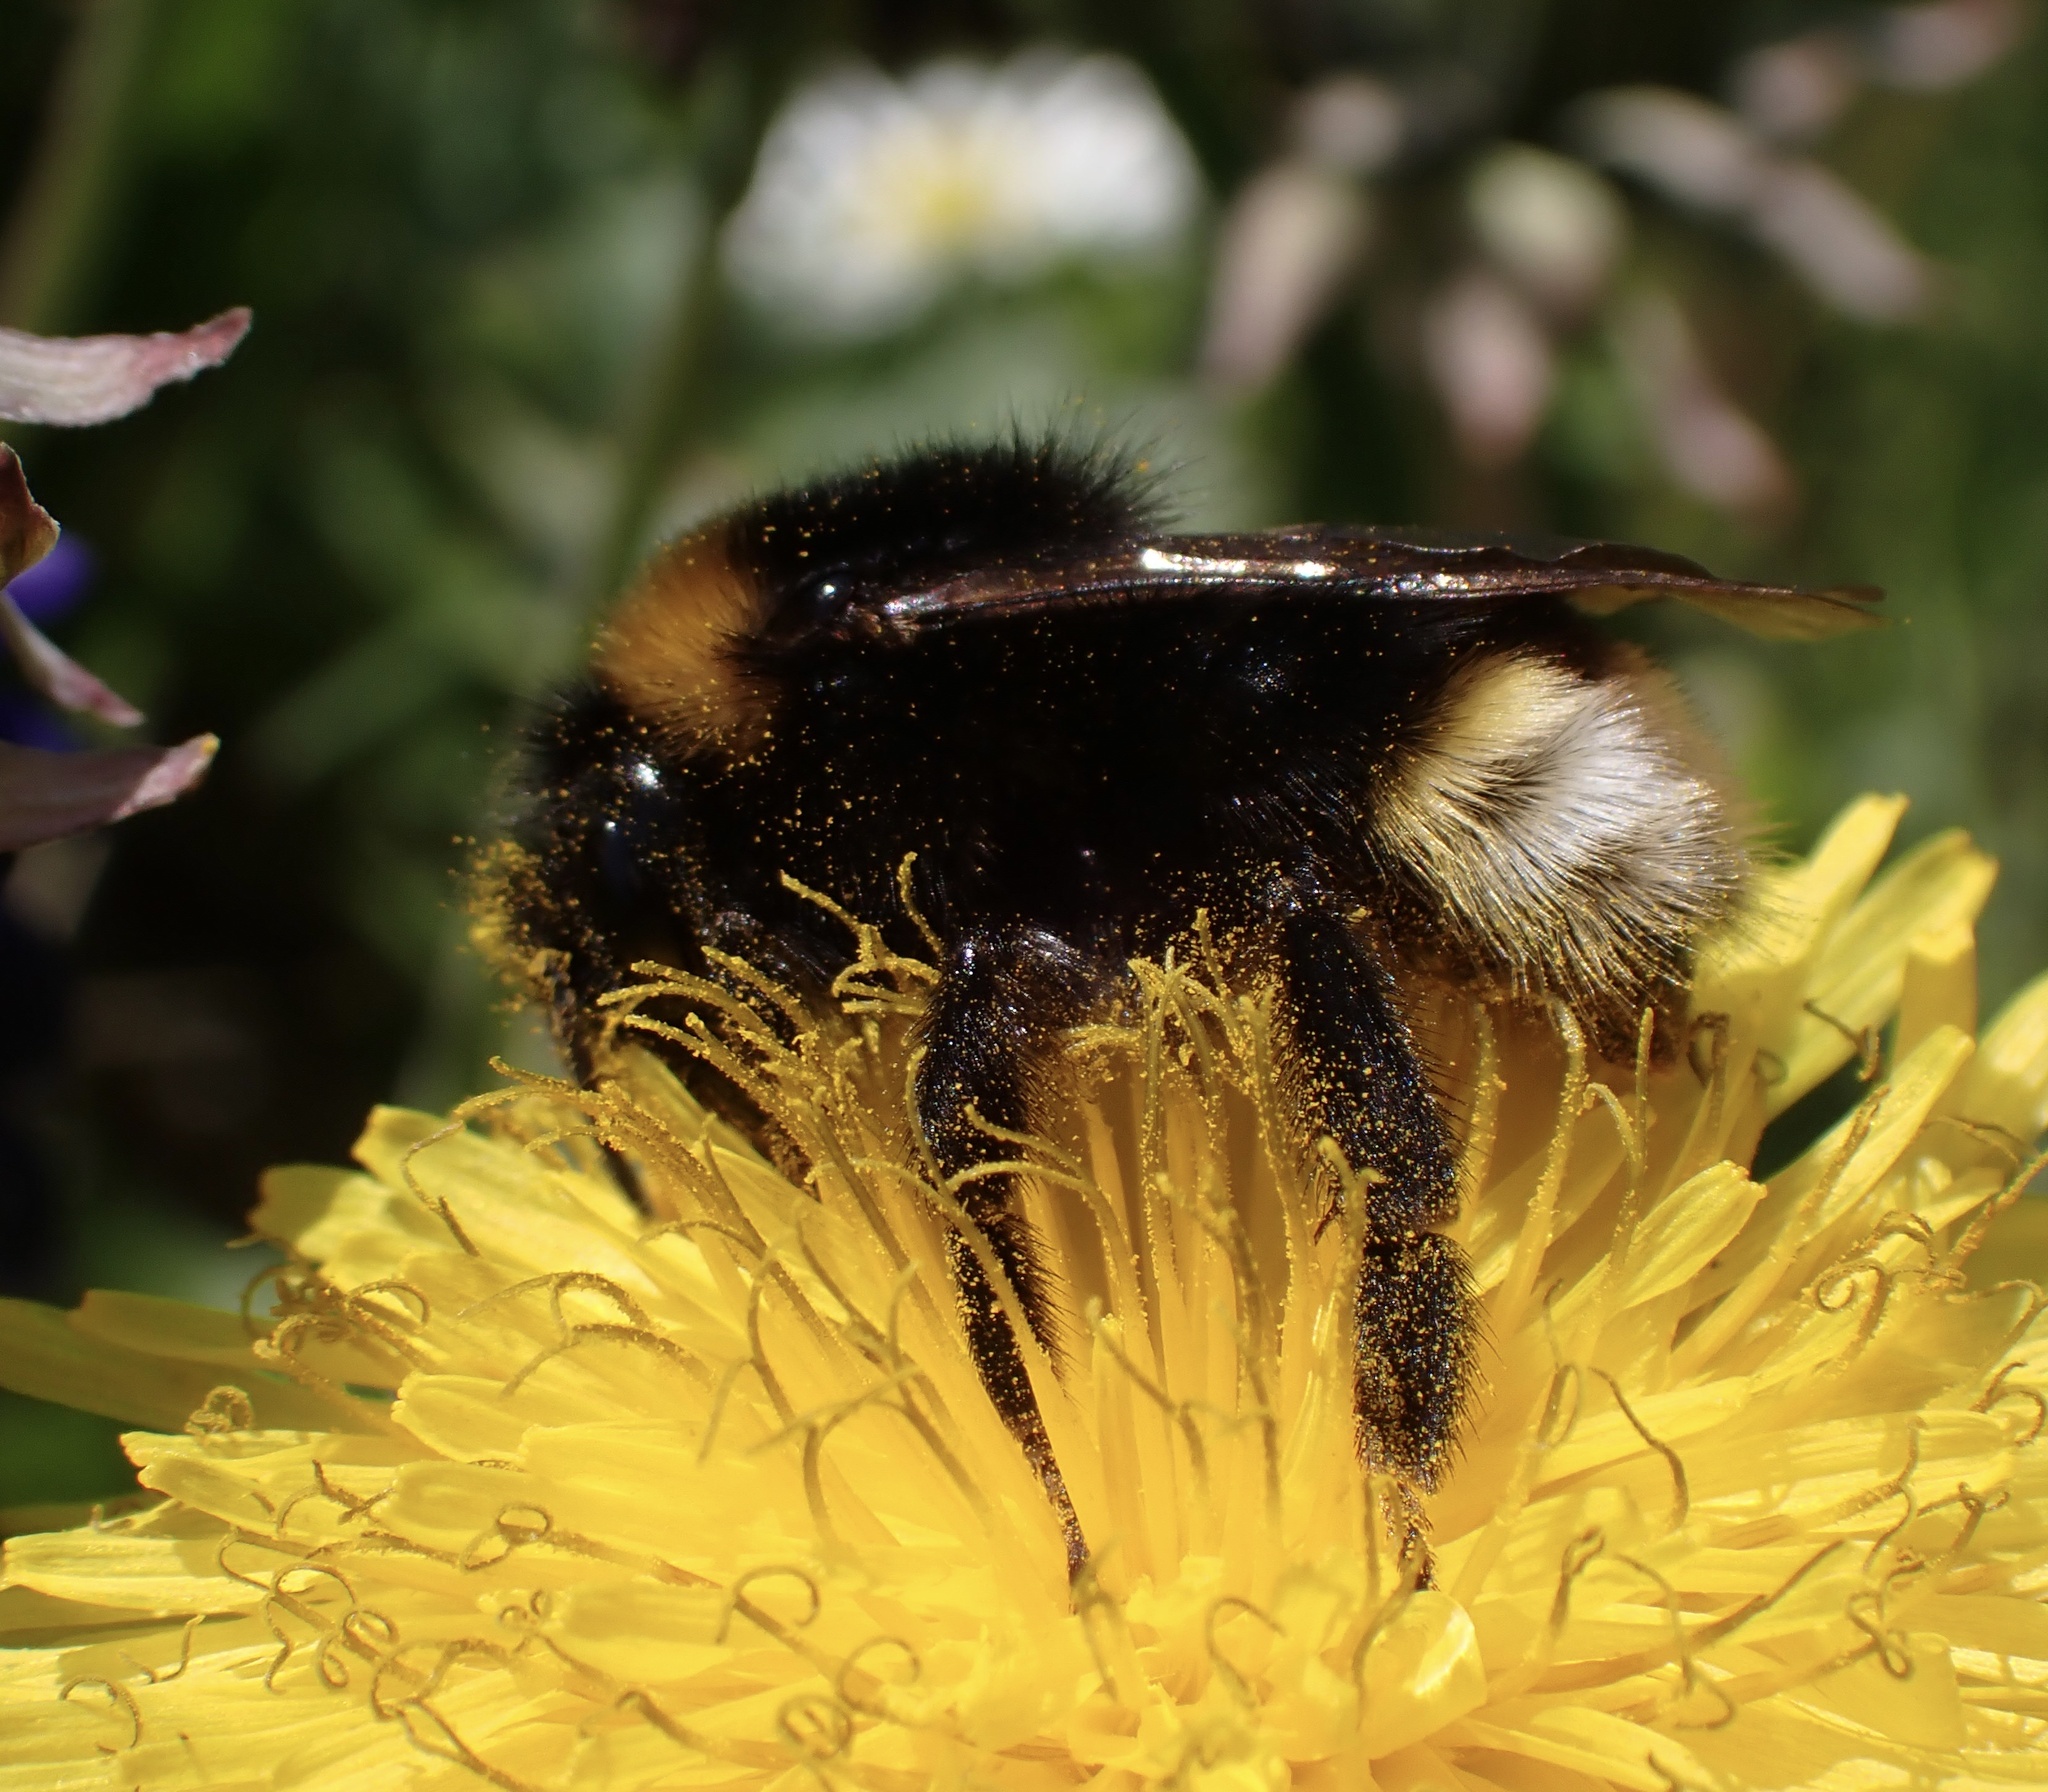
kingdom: Animalia
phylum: Arthropoda
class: Insecta
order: Hymenoptera
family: Apidae
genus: Bombus
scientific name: Bombus vestalis
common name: Vestal cuckoo bee
